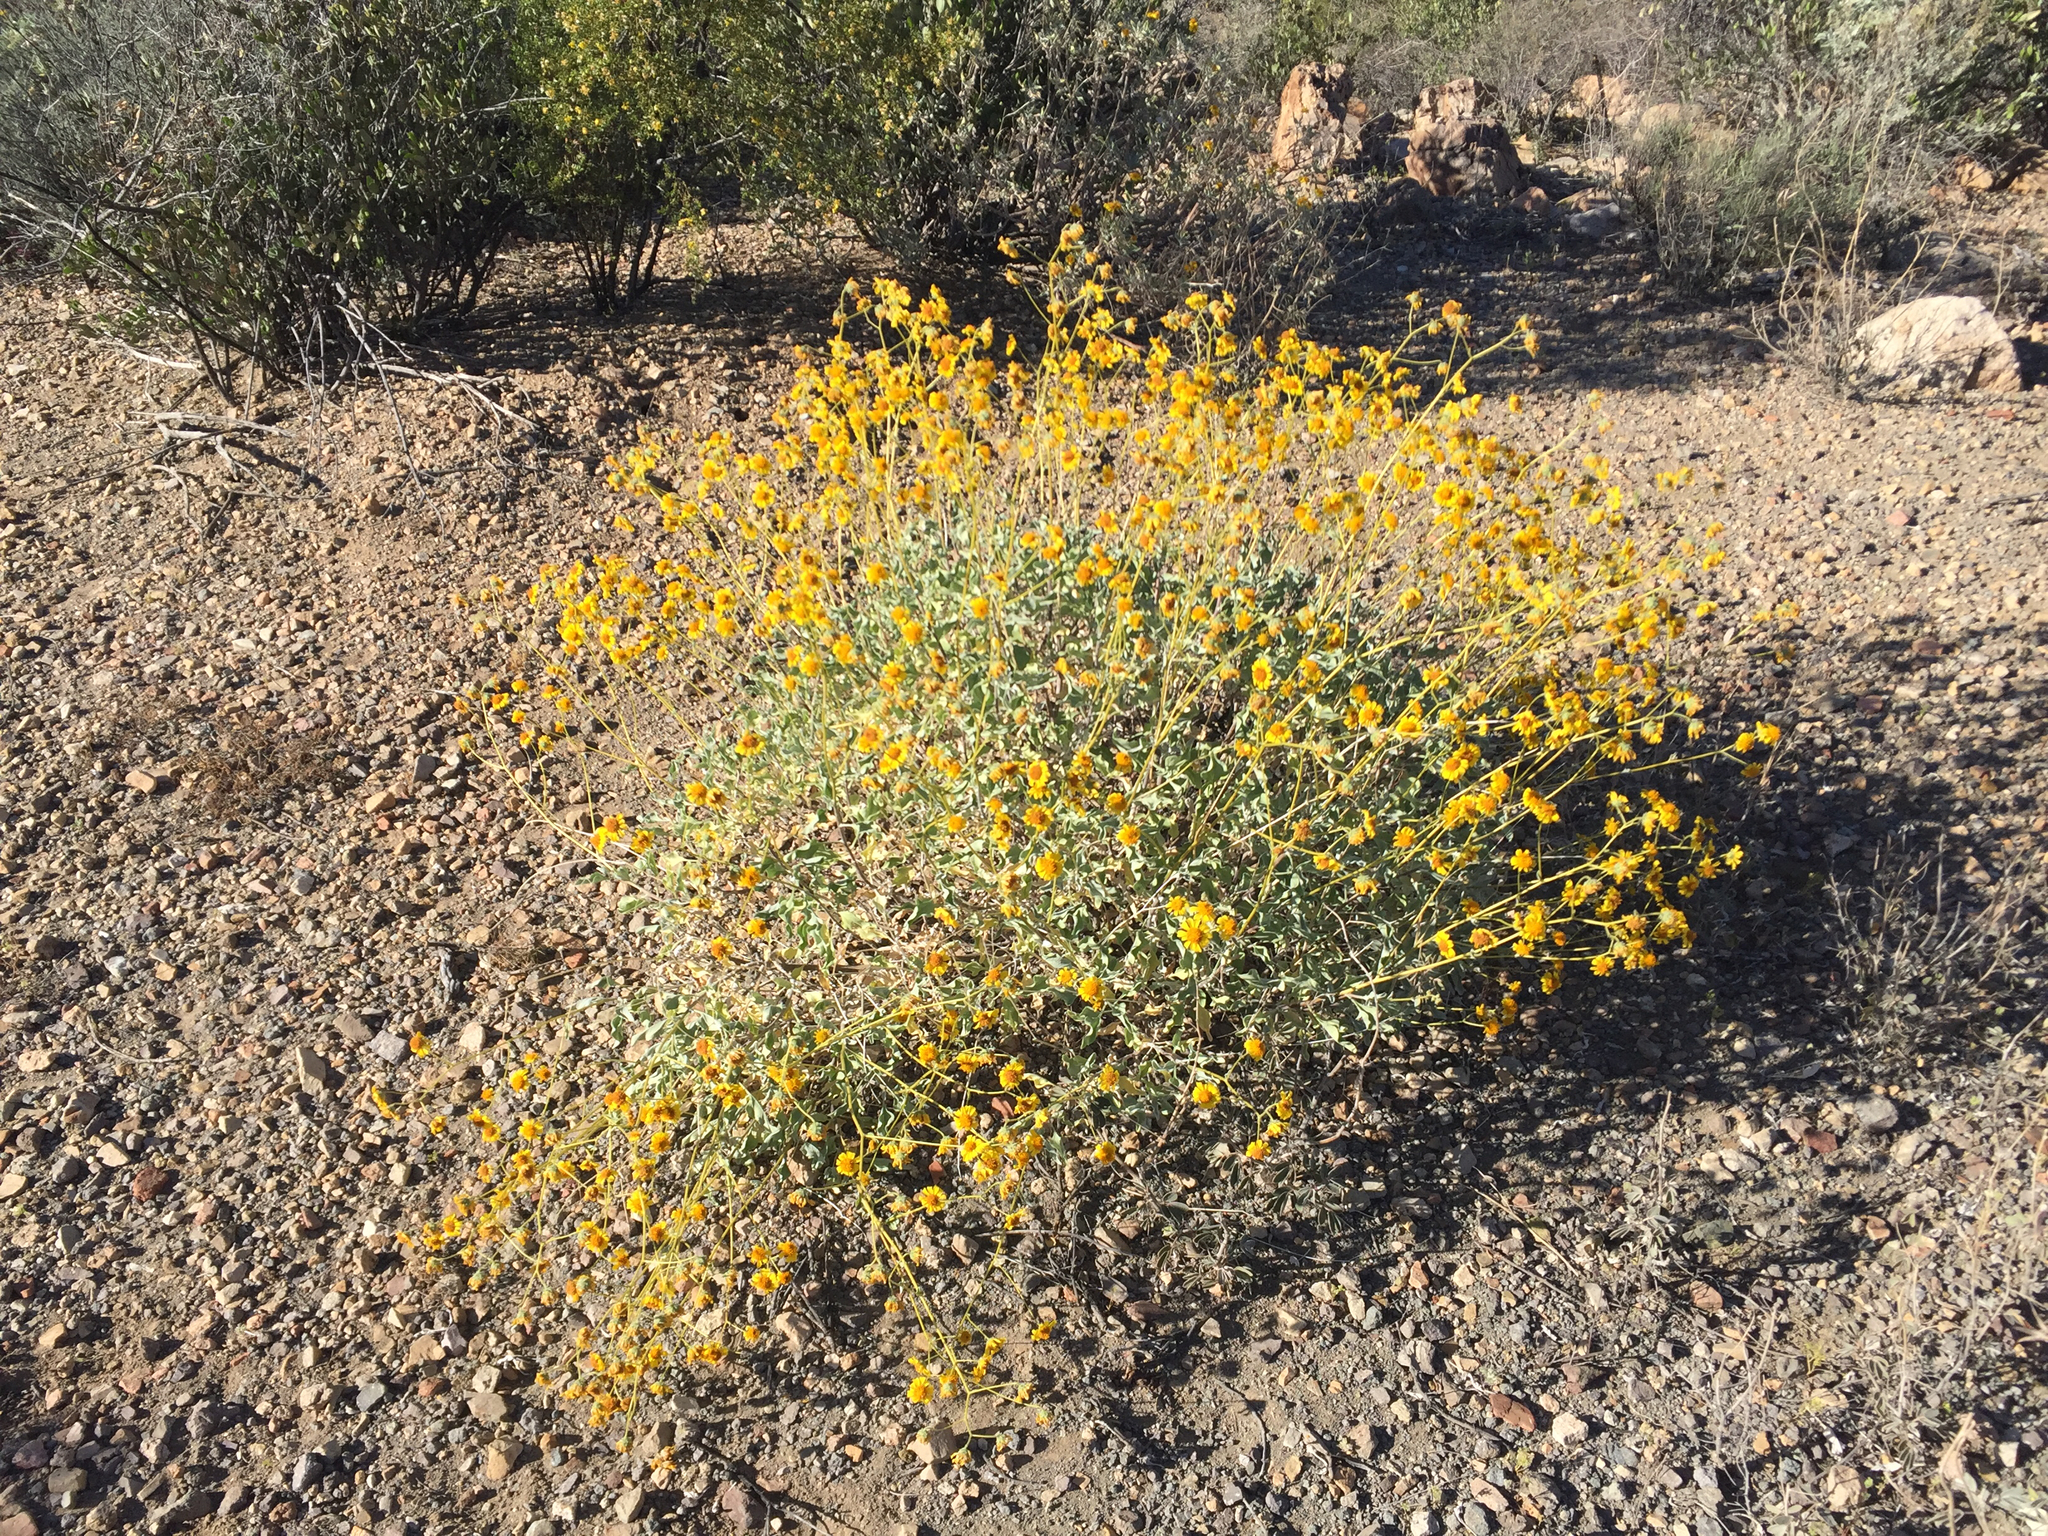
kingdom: Plantae
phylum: Tracheophyta
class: Magnoliopsida
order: Asterales
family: Asteraceae
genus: Encelia
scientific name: Encelia farinosa
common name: Brittlebush
